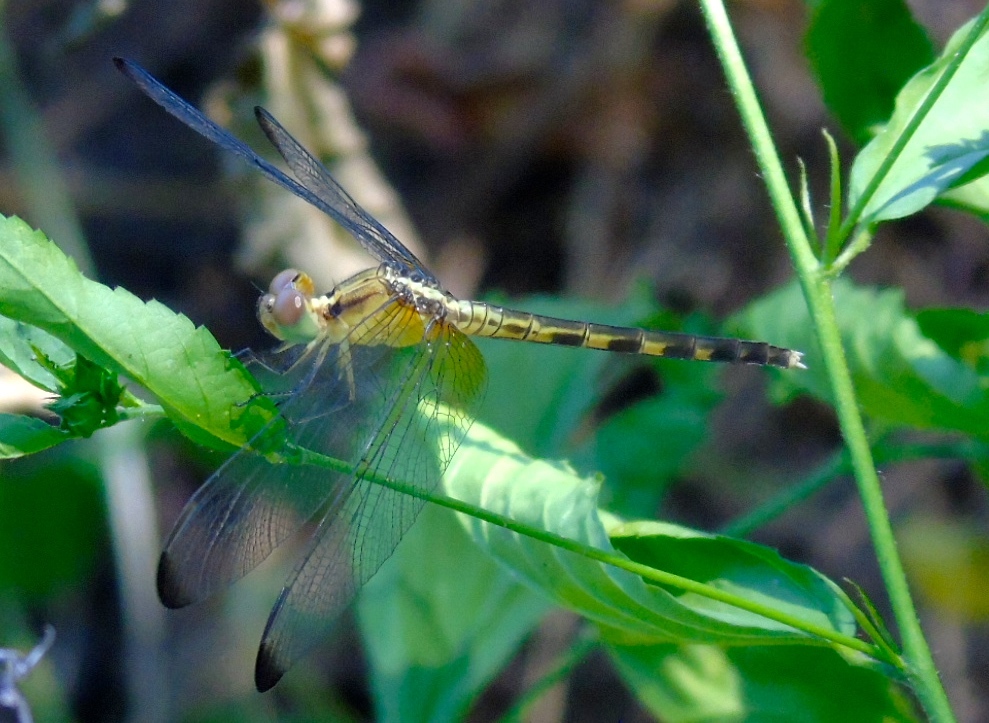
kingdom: Animalia
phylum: Arthropoda
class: Insecta
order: Odonata
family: Libellulidae
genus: Erythrodiplax
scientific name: Erythrodiplax
